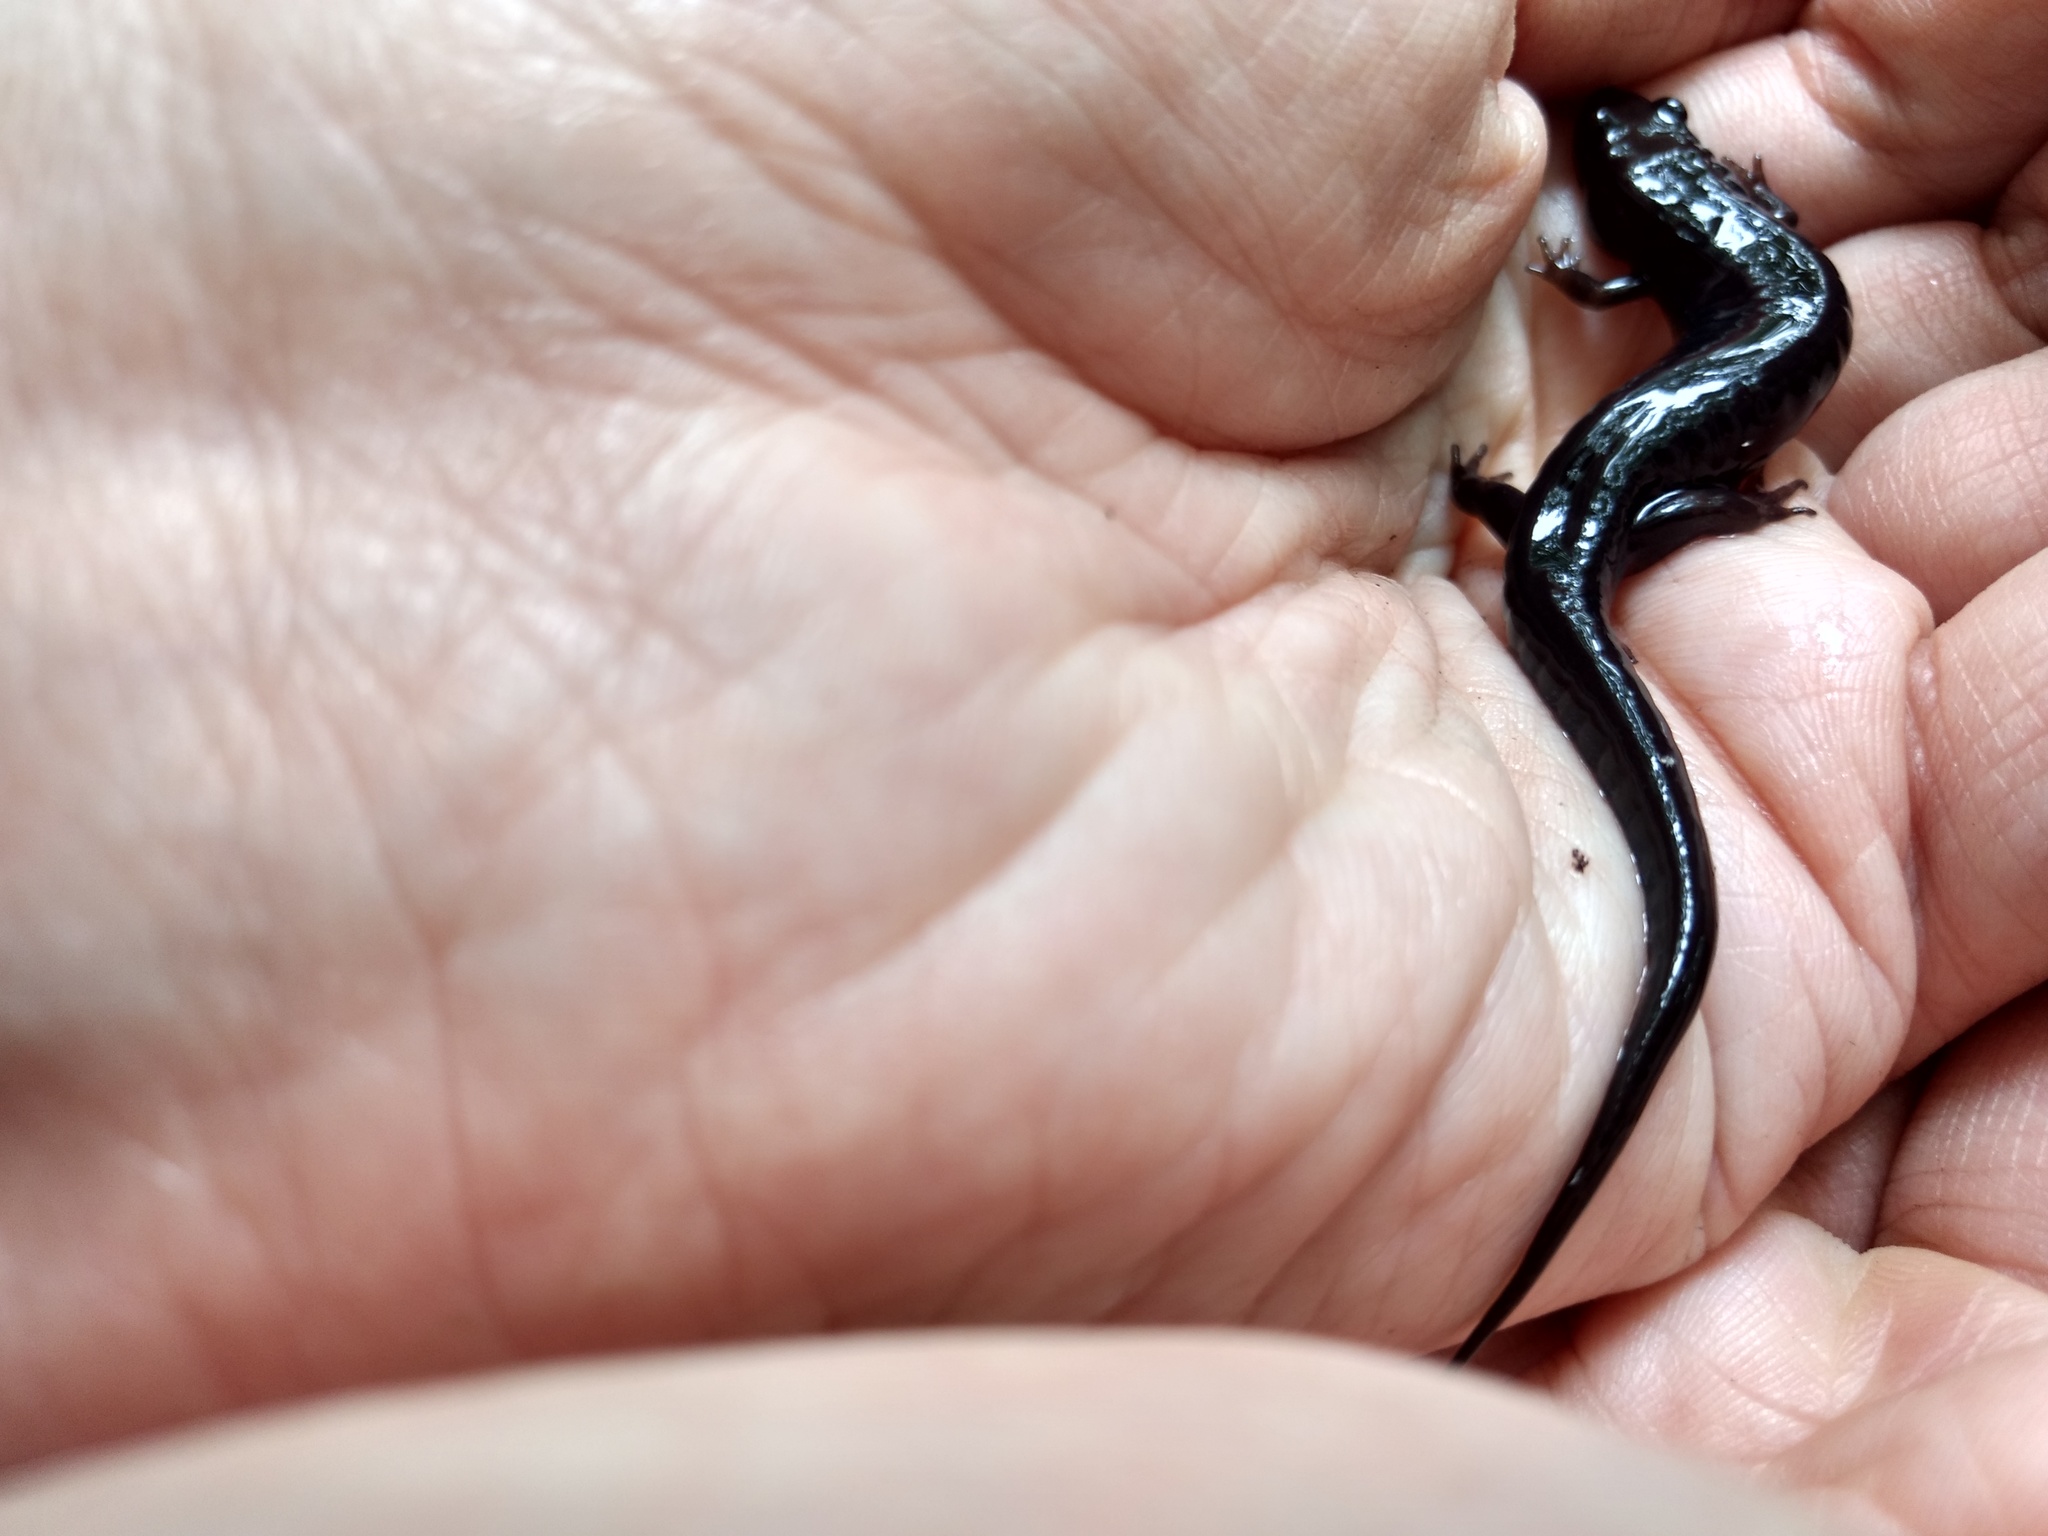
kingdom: Animalia
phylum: Chordata
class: Amphibia
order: Caudata
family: Plethodontidae
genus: Desmognathus
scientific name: Desmognathus carolinensis
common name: Carolina mountain dusky salamander
